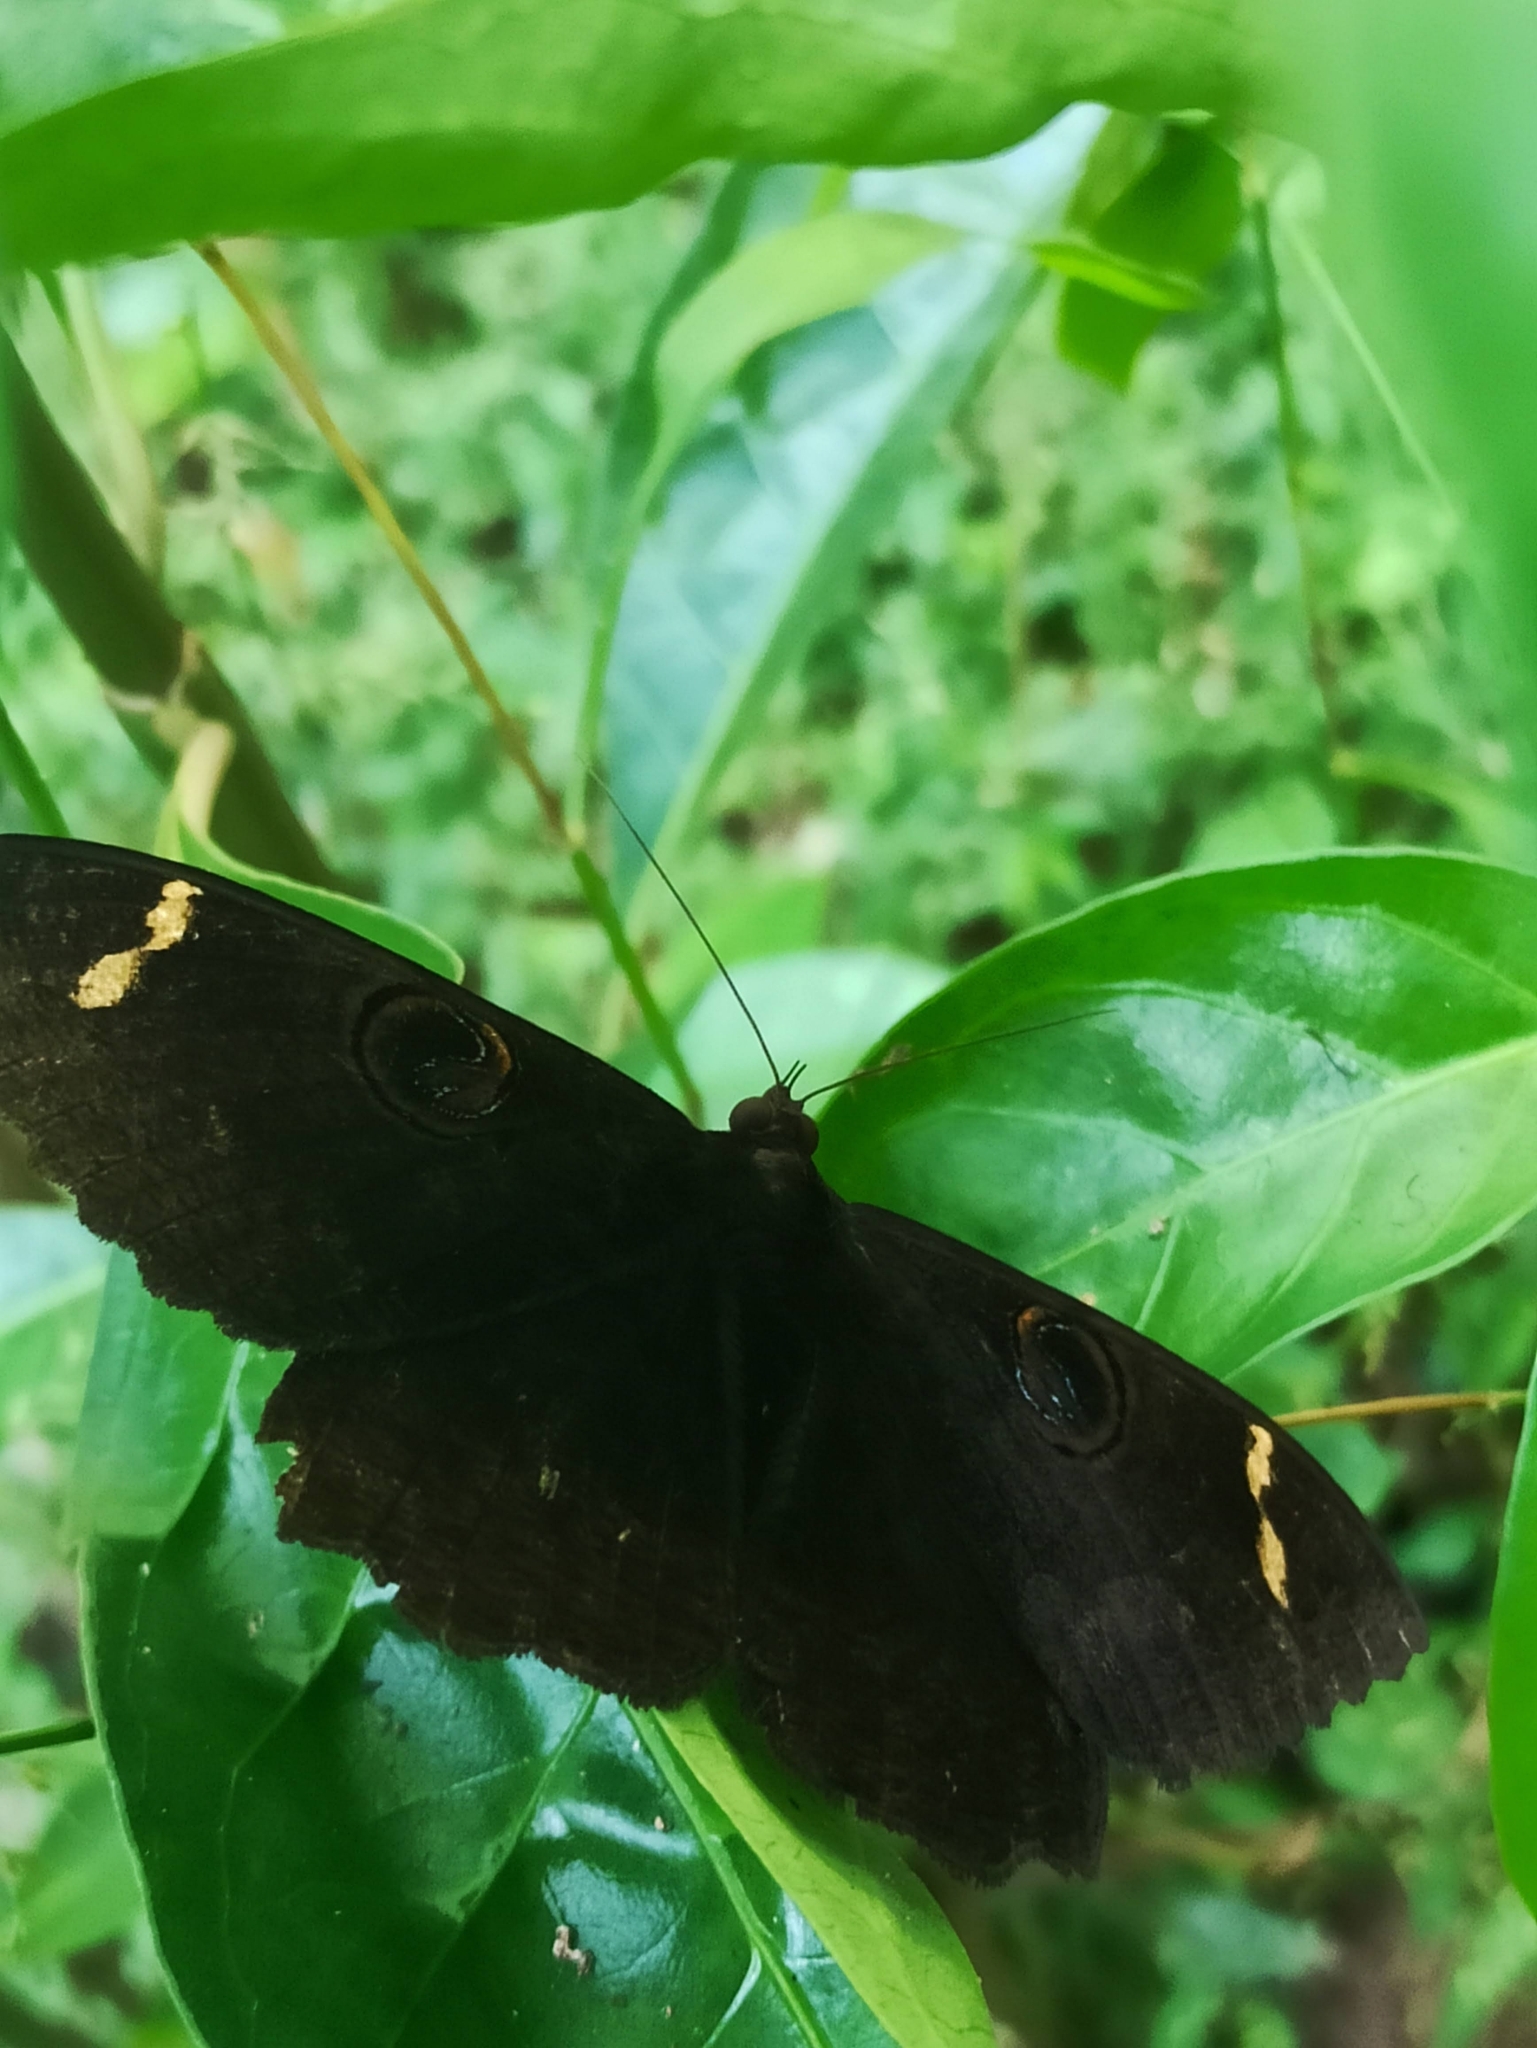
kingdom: Animalia
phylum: Arthropoda
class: Insecta
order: Lepidoptera
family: Erebidae
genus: Erebus
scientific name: Erebus hieroglyphica
